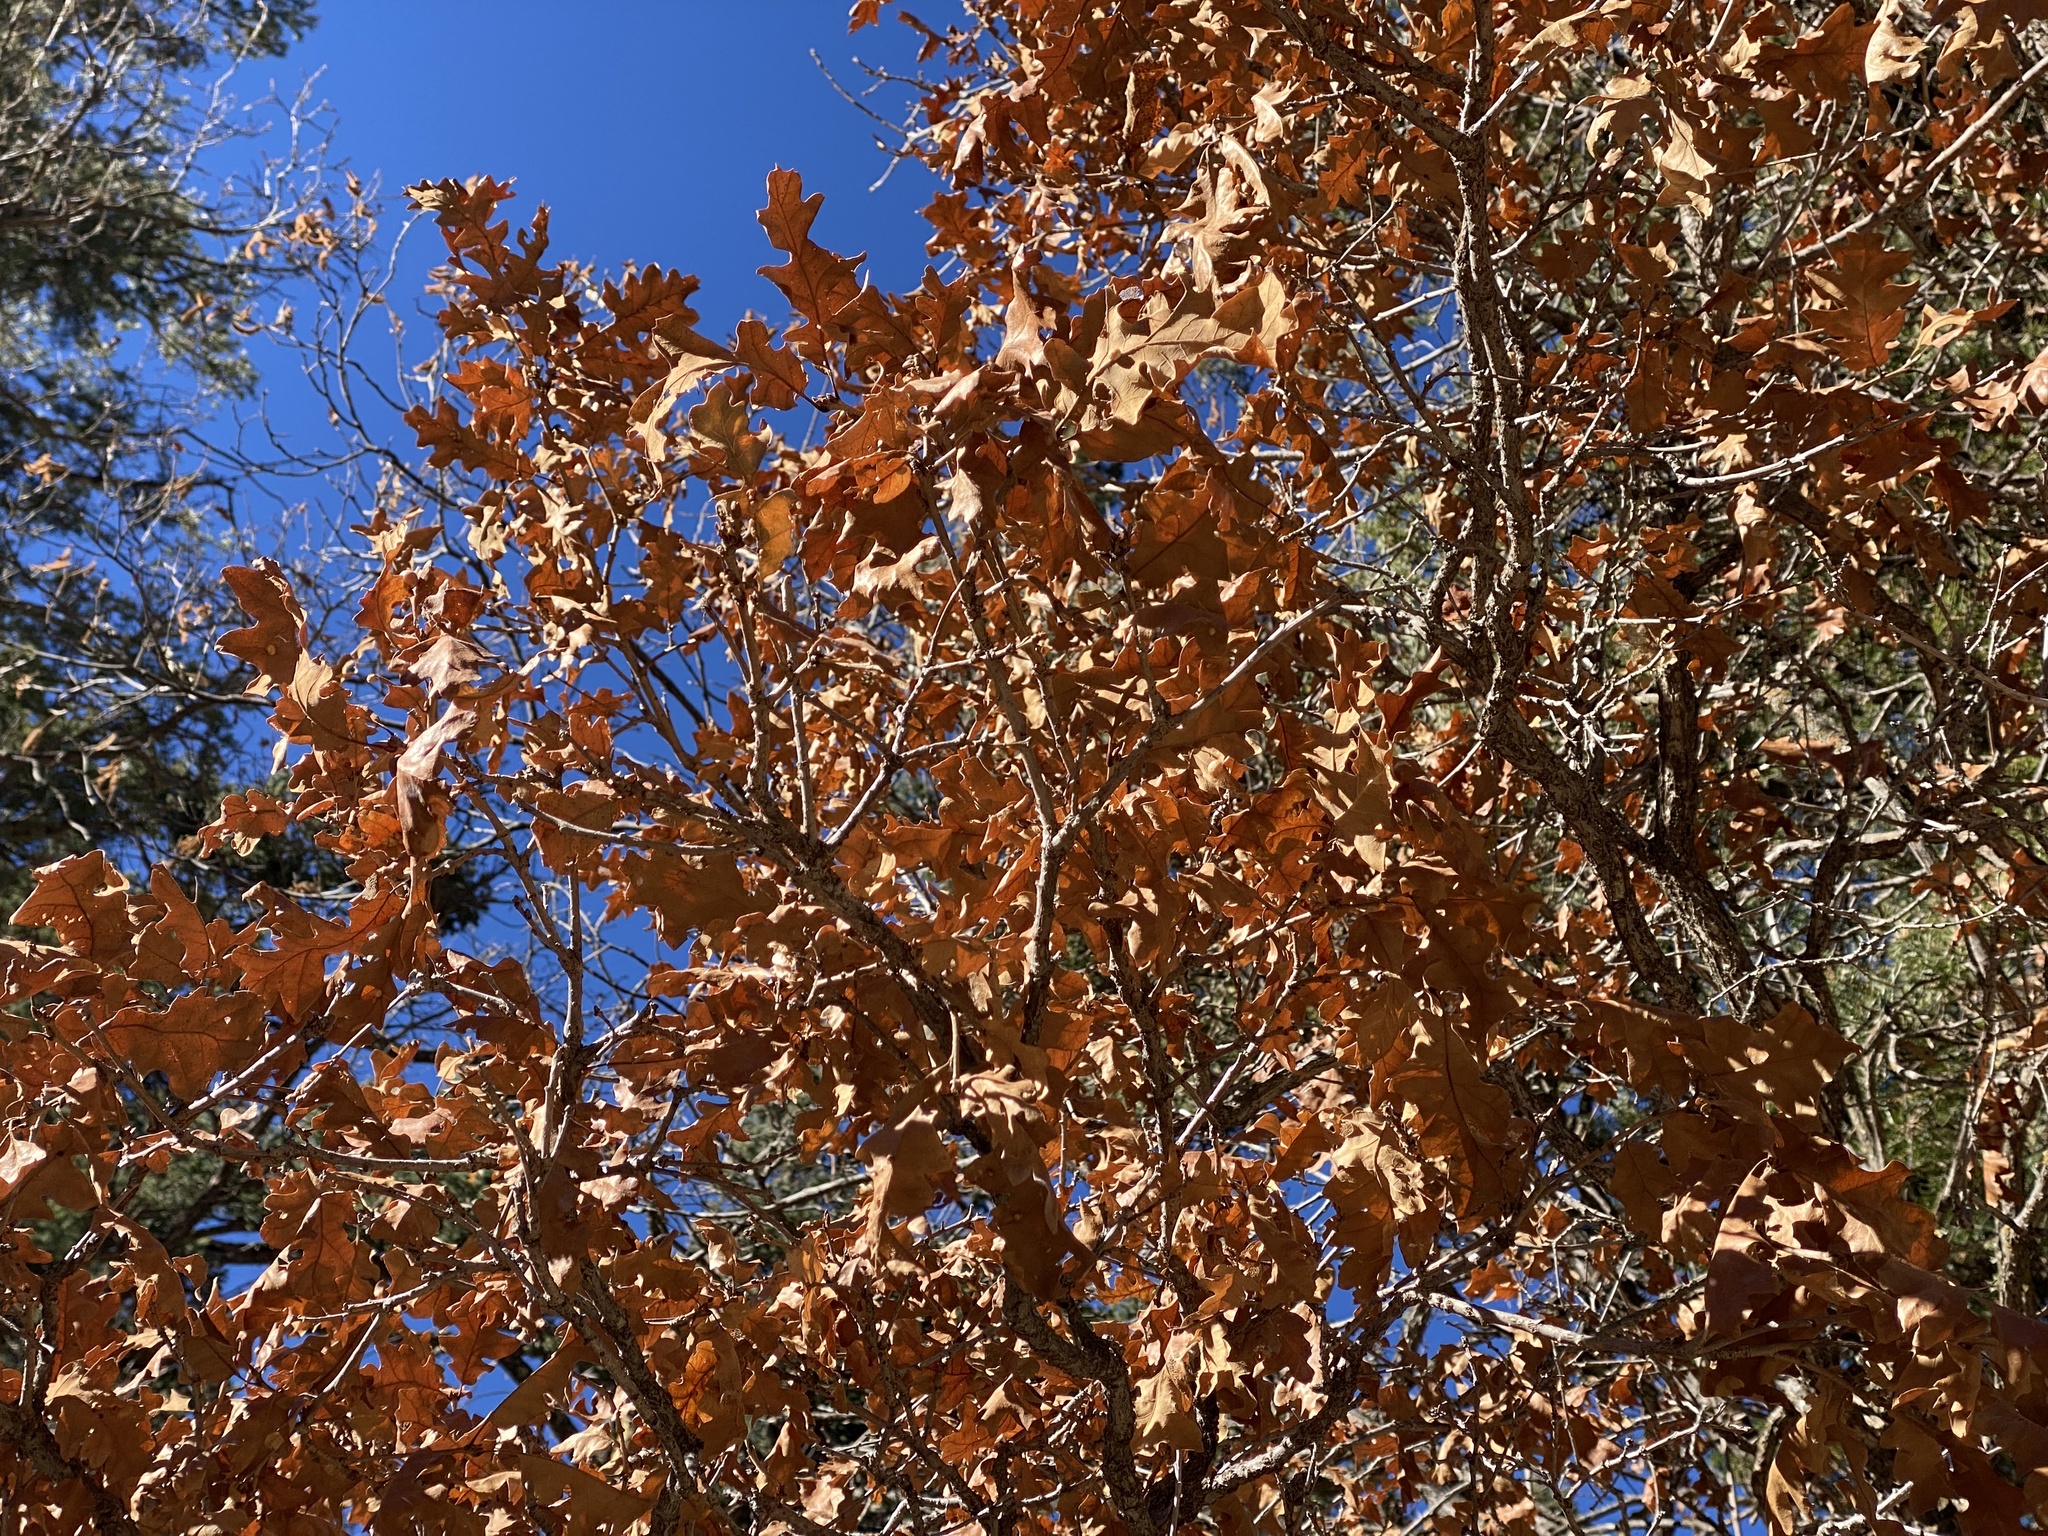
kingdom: Plantae
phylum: Tracheophyta
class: Magnoliopsida
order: Fagales
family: Fagaceae
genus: Quercus
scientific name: Quercus gambelii
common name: Gambel oak
